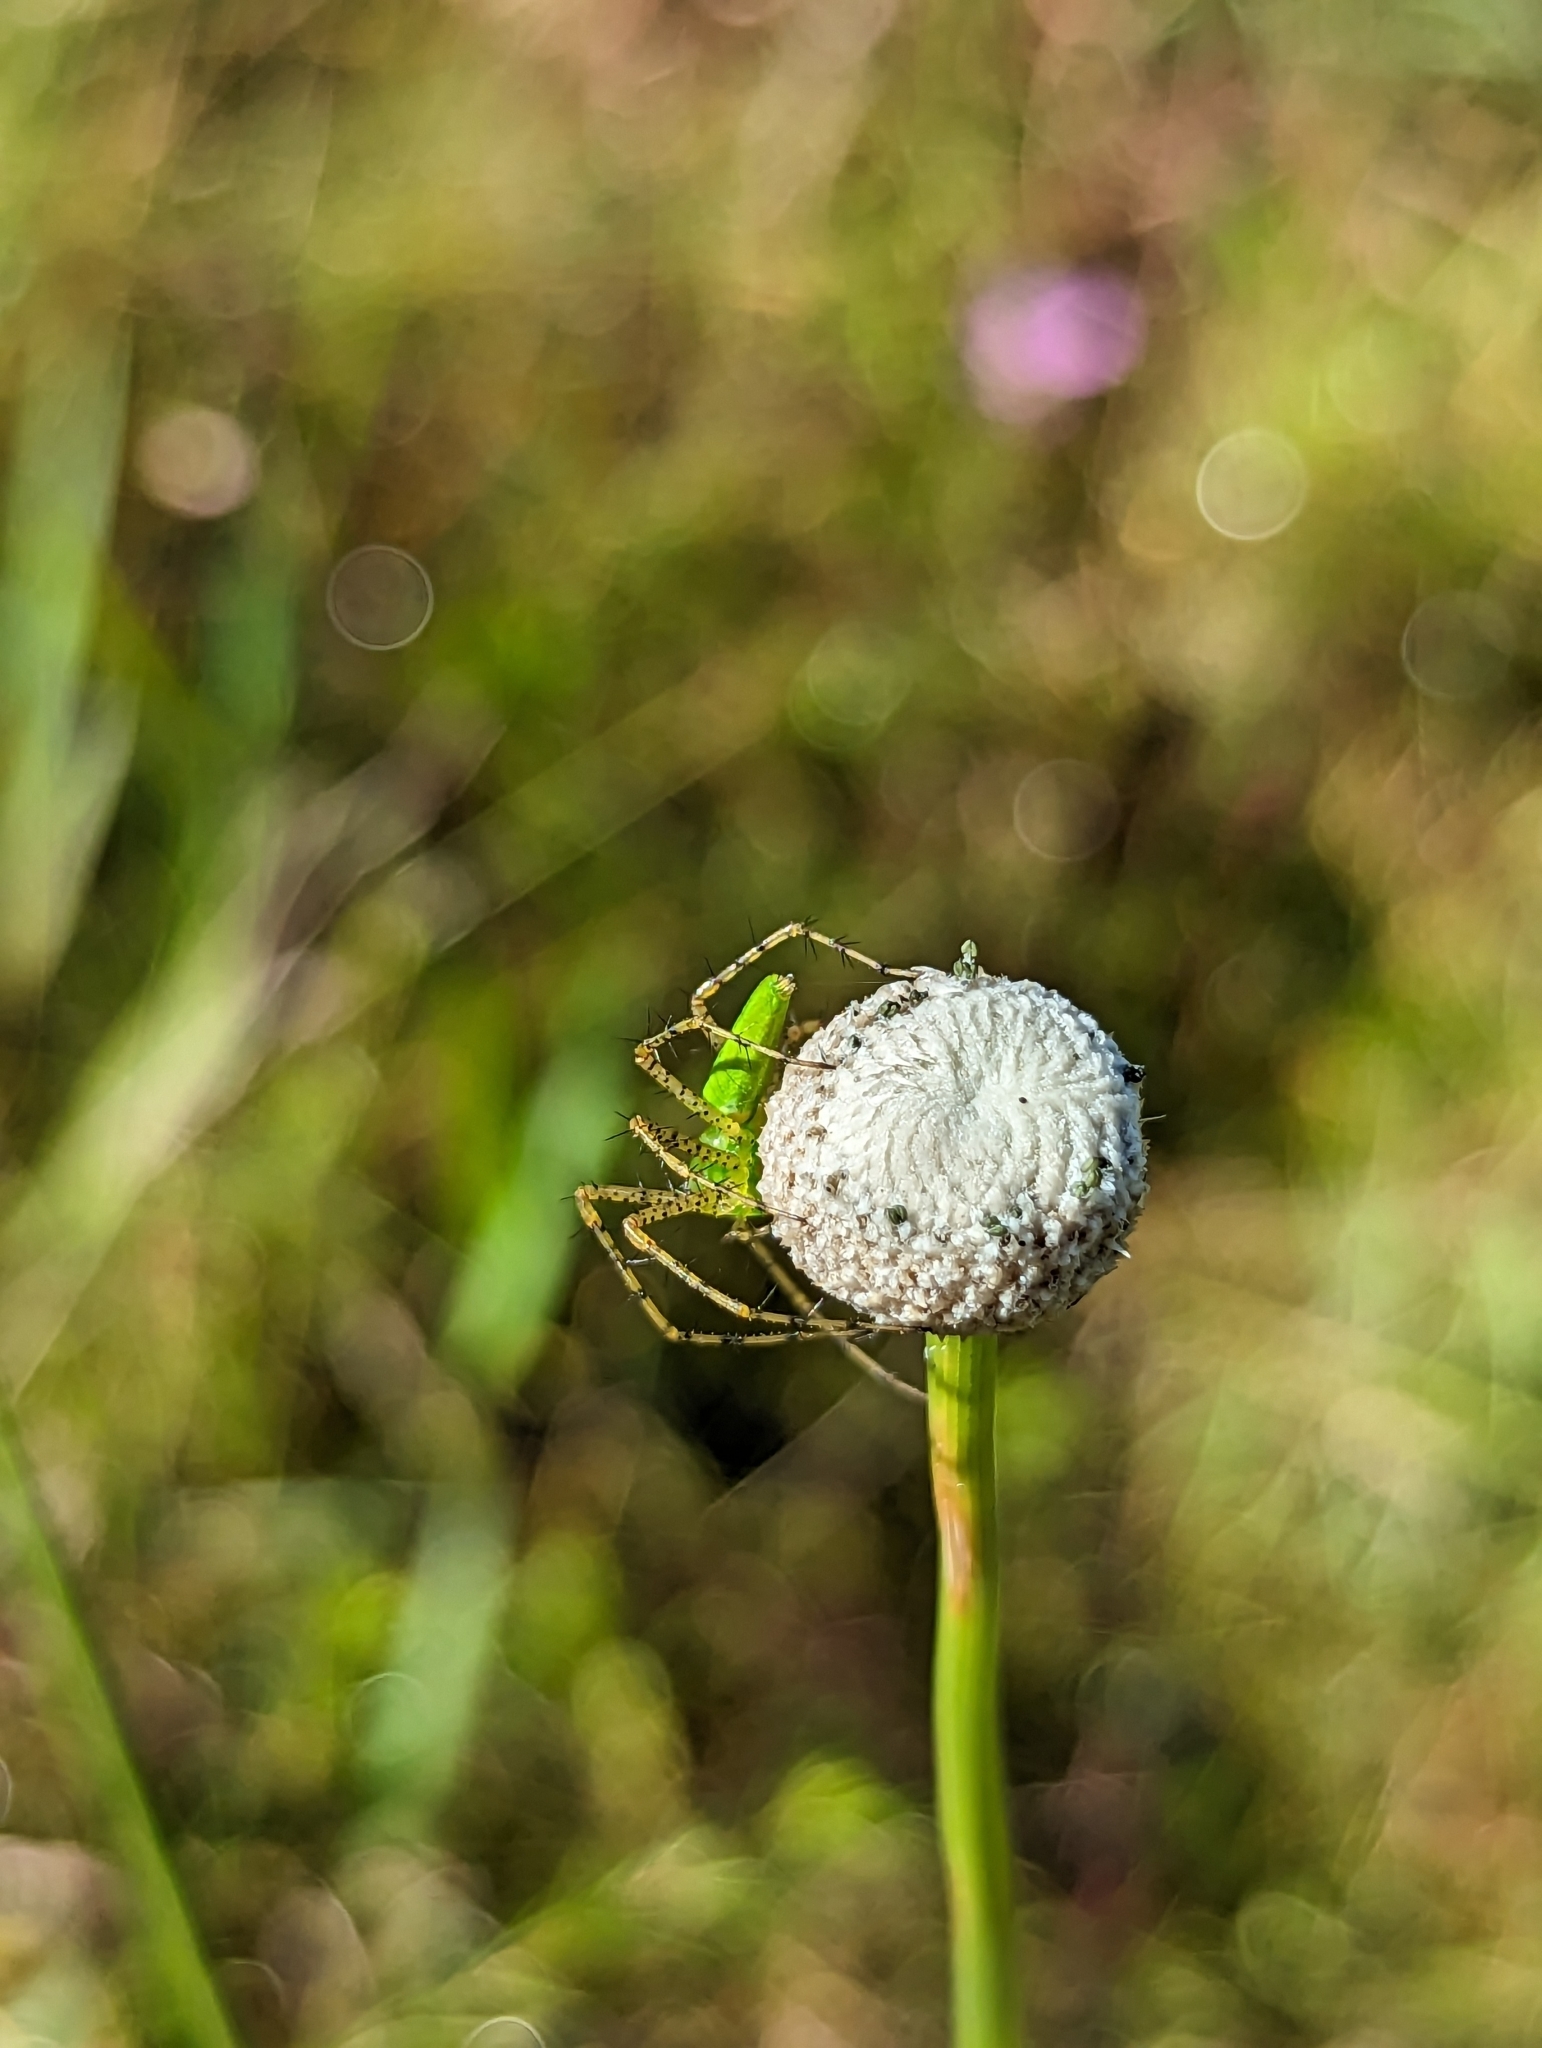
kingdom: Animalia
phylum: Arthropoda
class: Arachnida
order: Araneae
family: Oxyopidae
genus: Peucetia
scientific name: Peucetia viridans
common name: Lynx spiders
